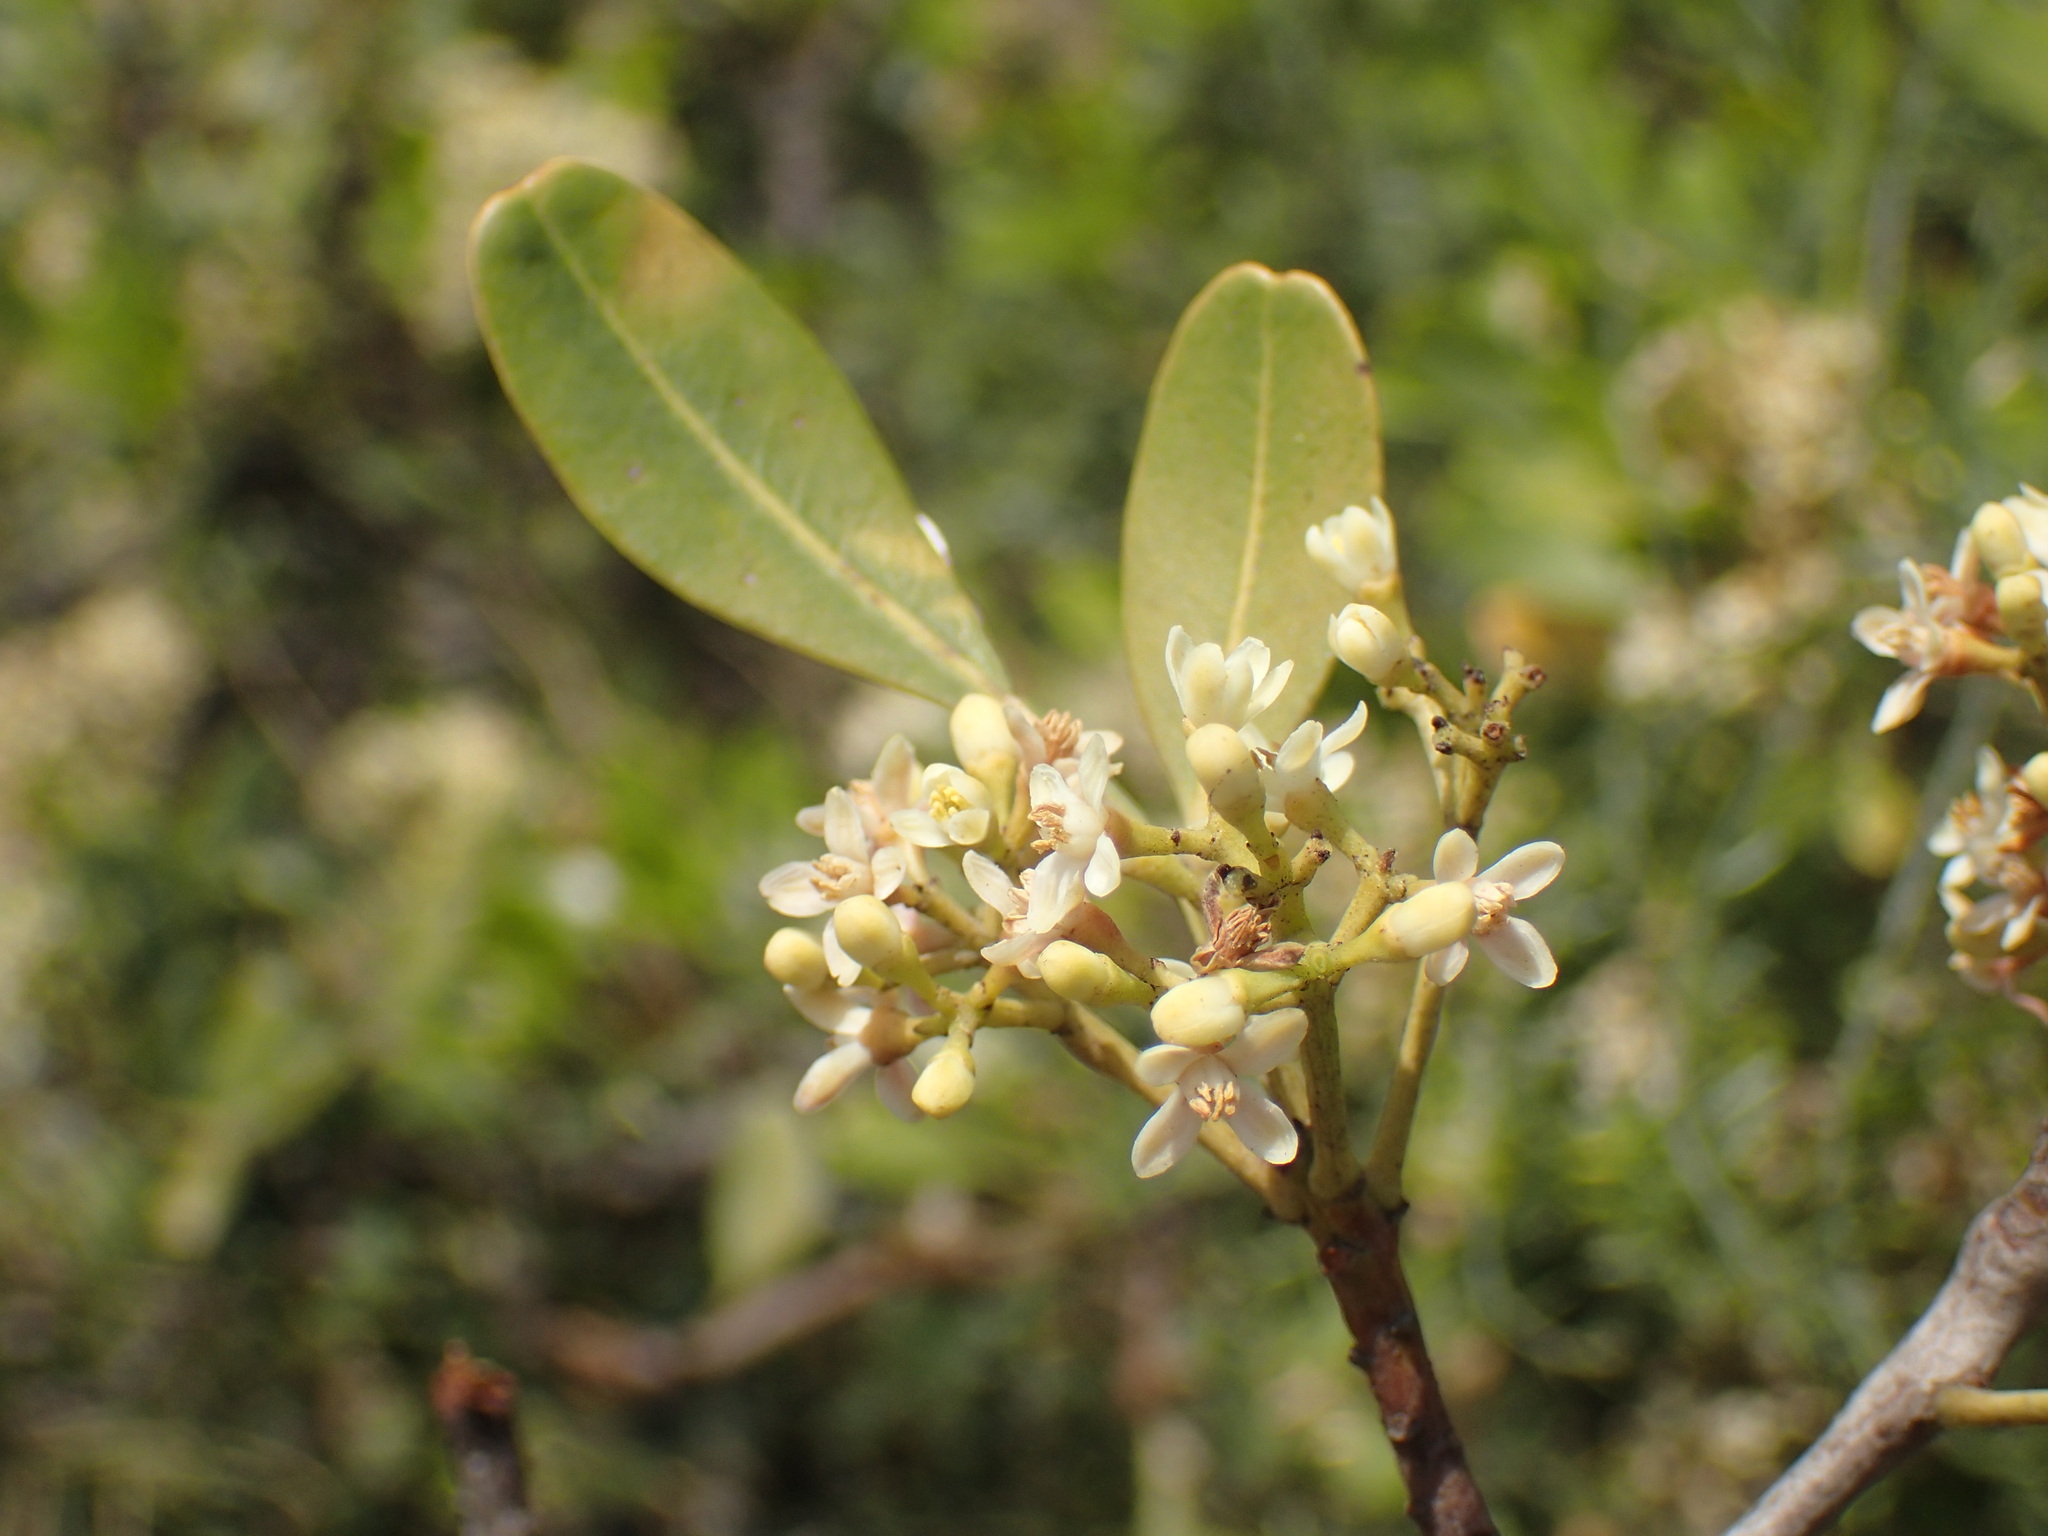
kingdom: Plantae
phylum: Tracheophyta
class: Magnoliopsida
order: Sapindales
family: Meliaceae
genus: Ekebergia
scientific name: Ekebergia pterophylla
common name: Cape ash
